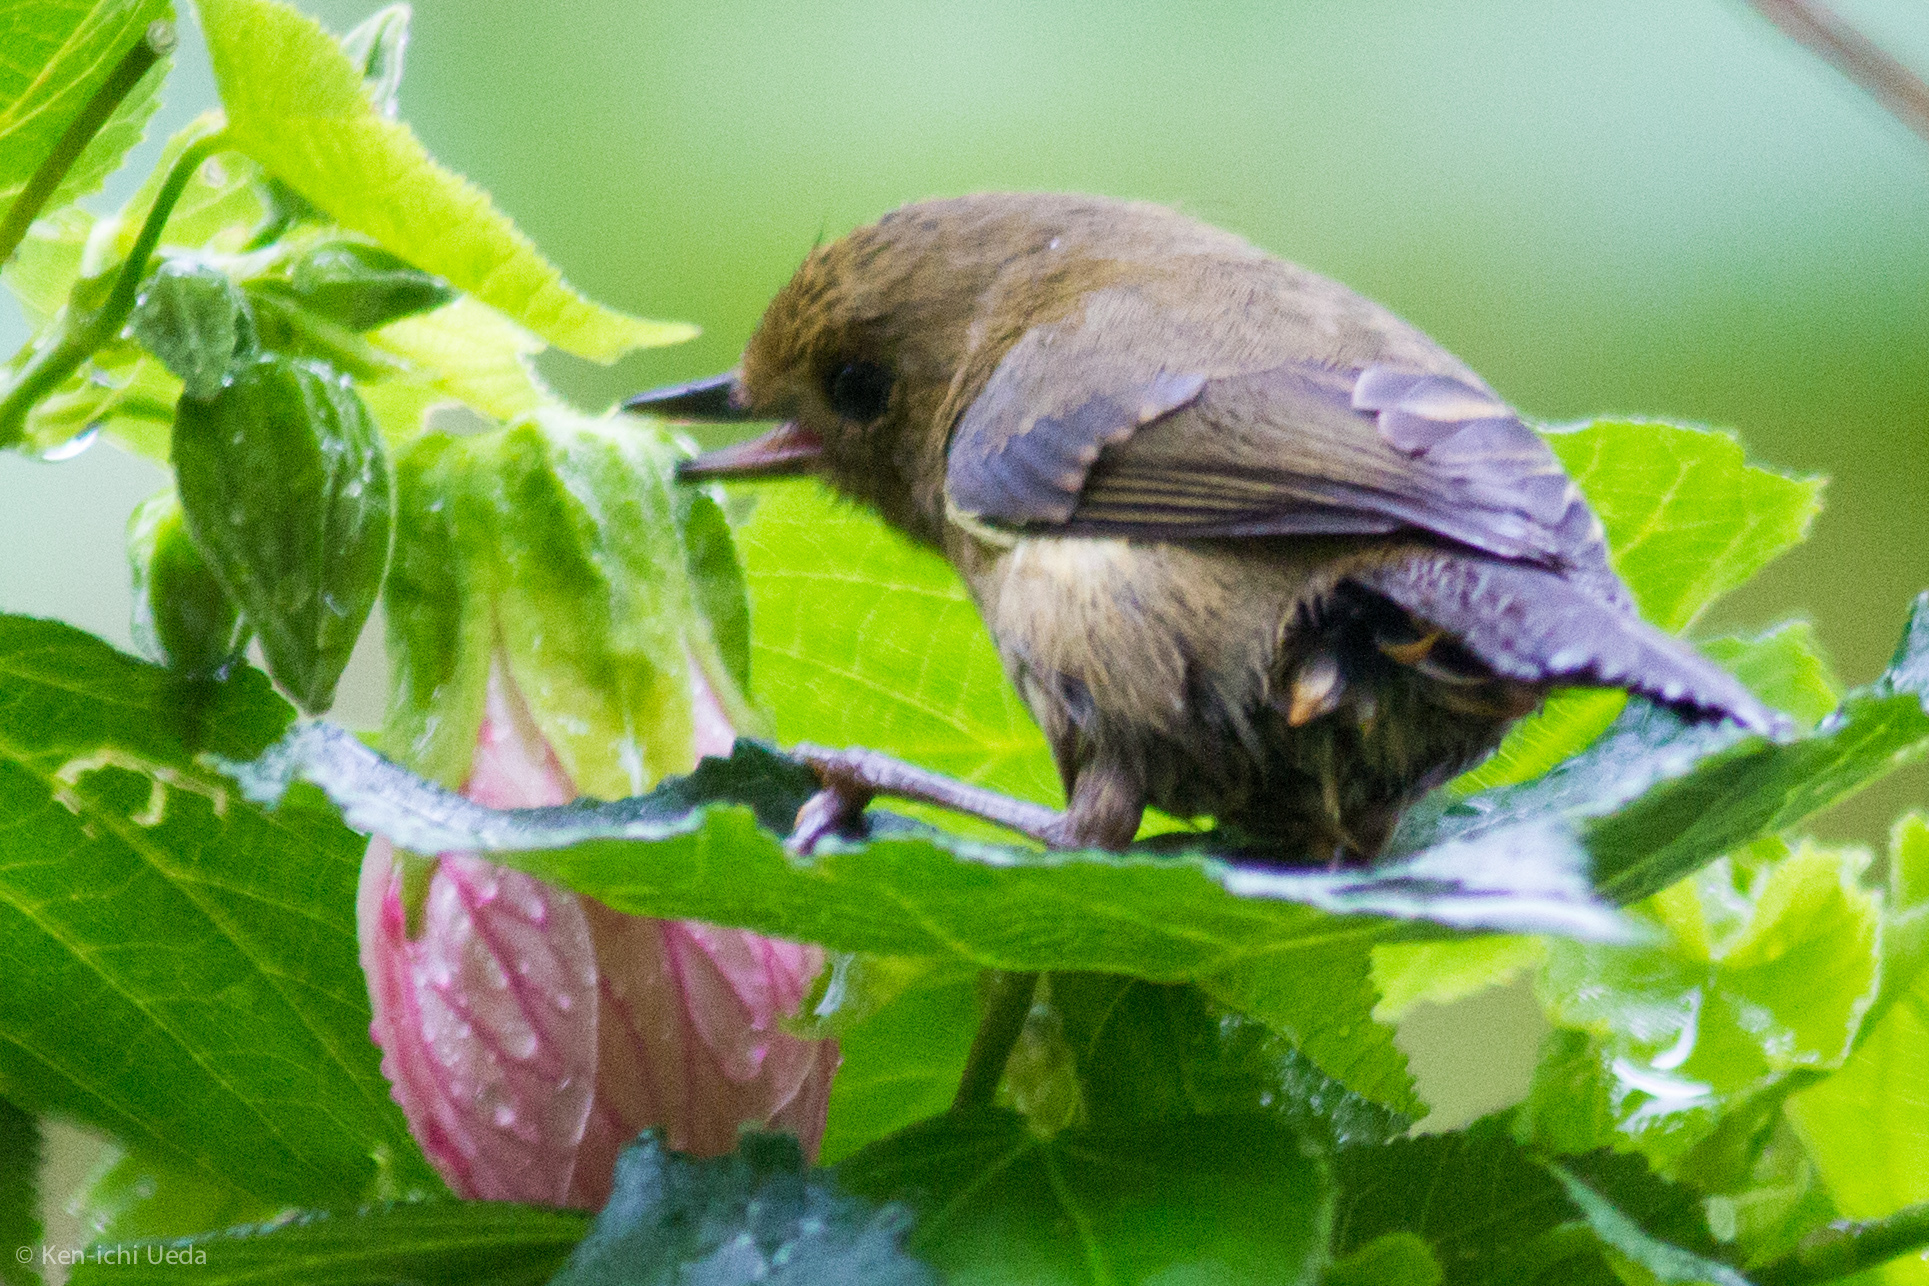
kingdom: Animalia
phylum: Chordata
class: Aves
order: Passeriformes
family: Thraupidae
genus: Diglossa
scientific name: Diglossa albilatera
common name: White-sided flowerpiercer
